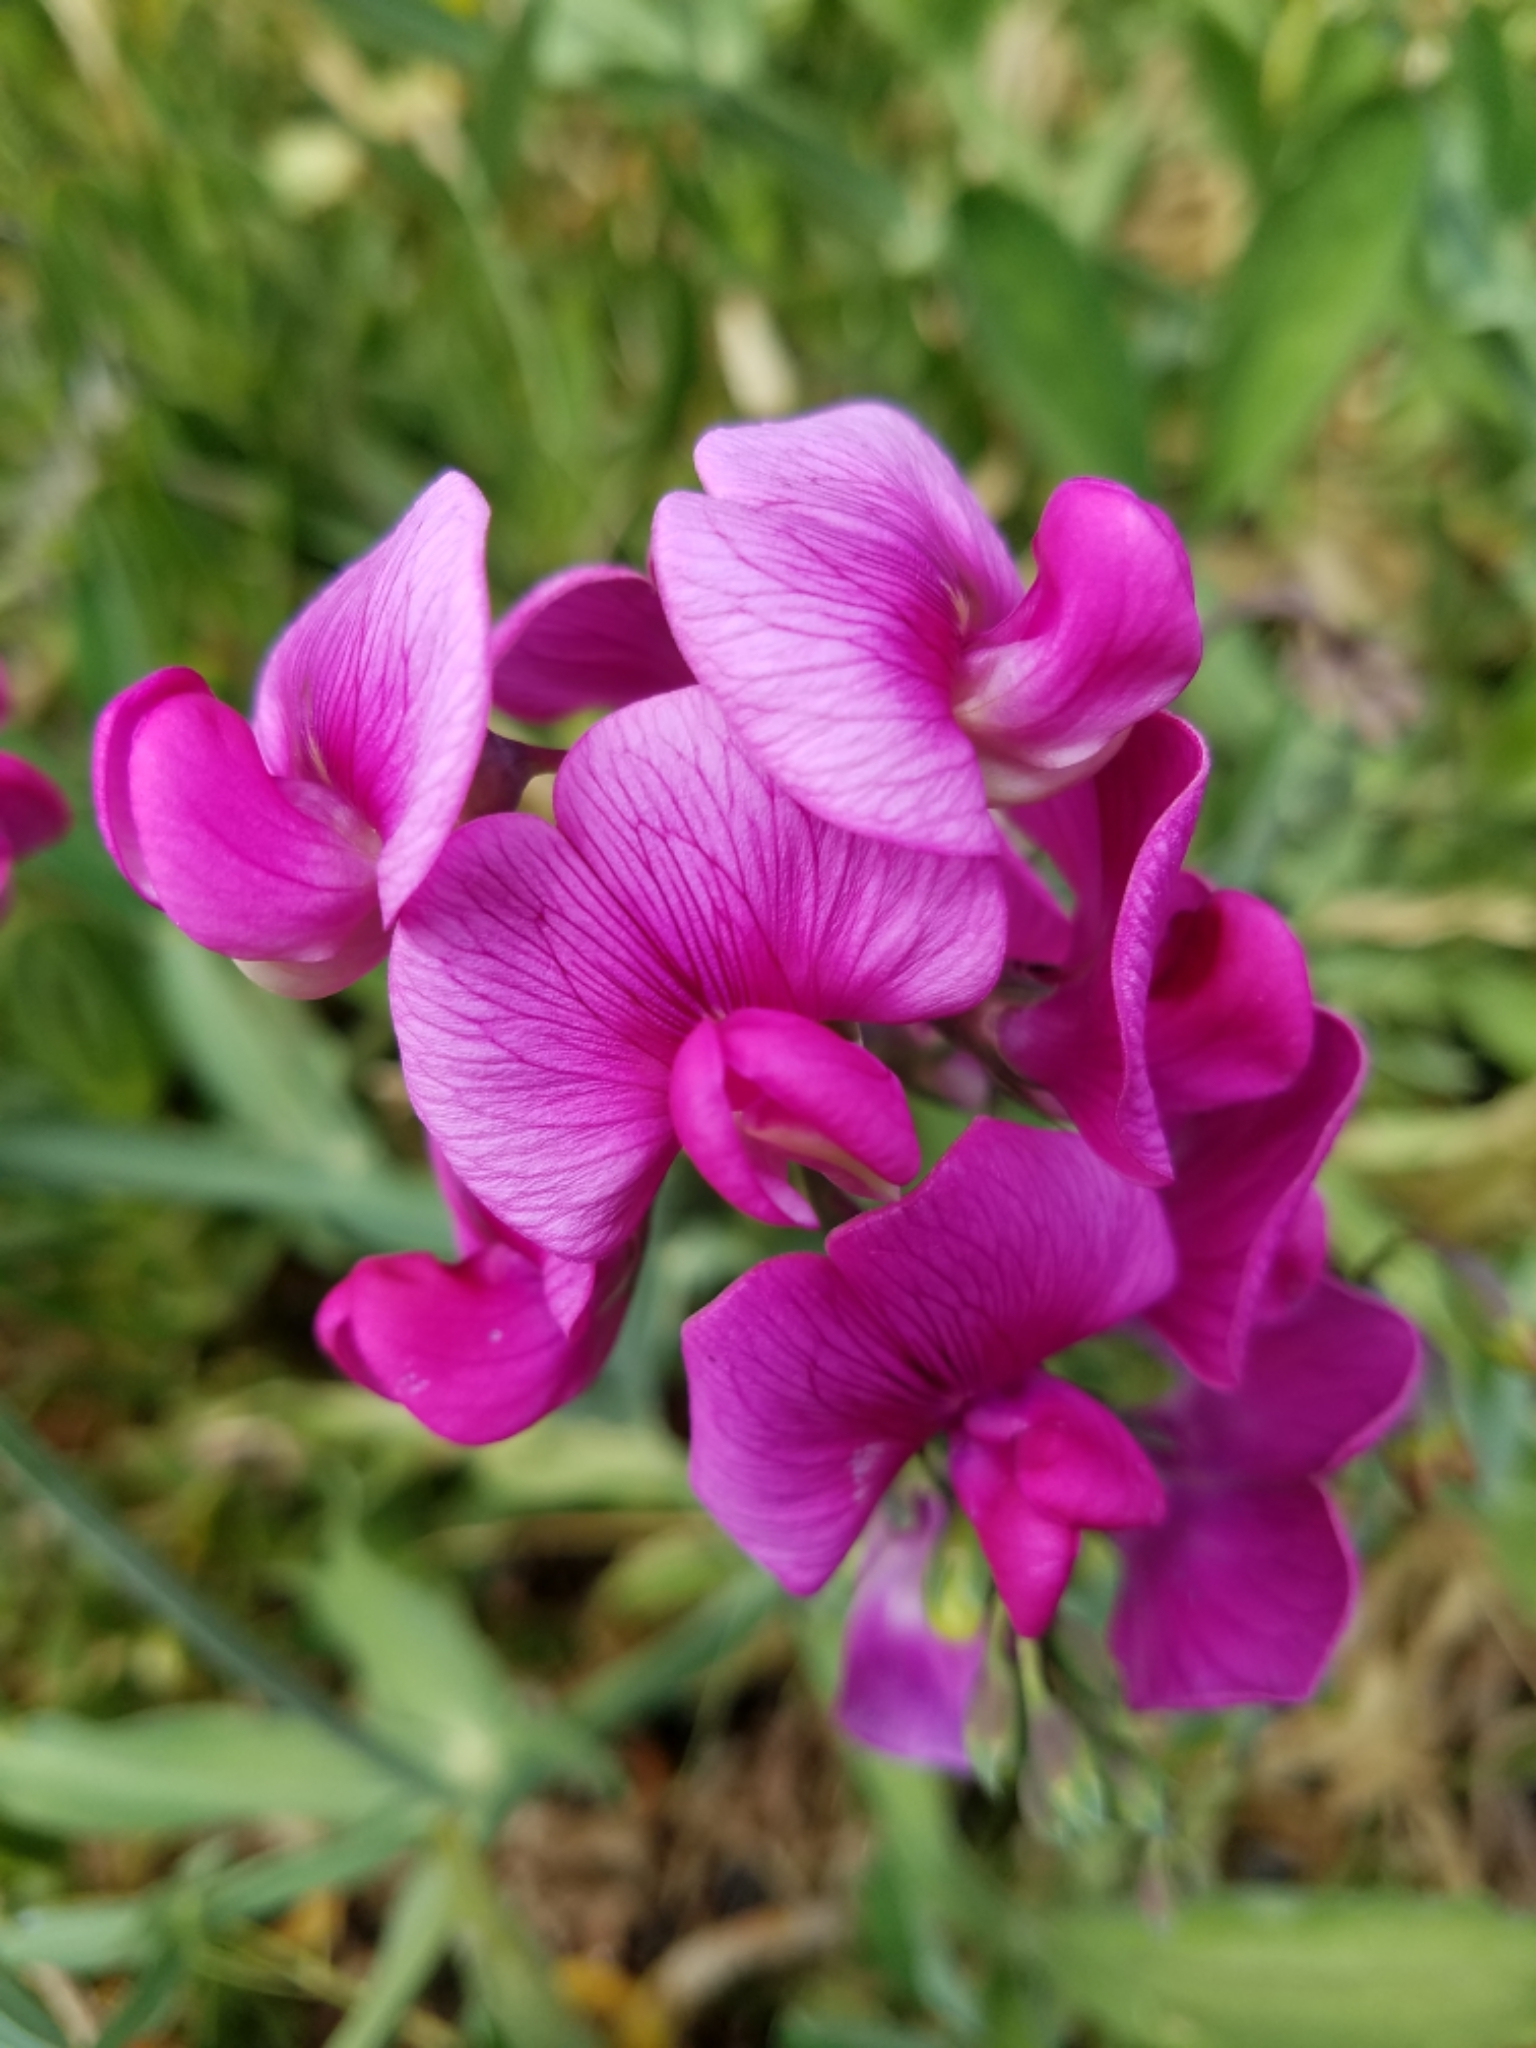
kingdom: Plantae
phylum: Tracheophyta
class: Magnoliopsida
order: Fabales
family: Fabaceae
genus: Lathyrus
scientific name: Lathyrus latifolius
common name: Perennial pea
